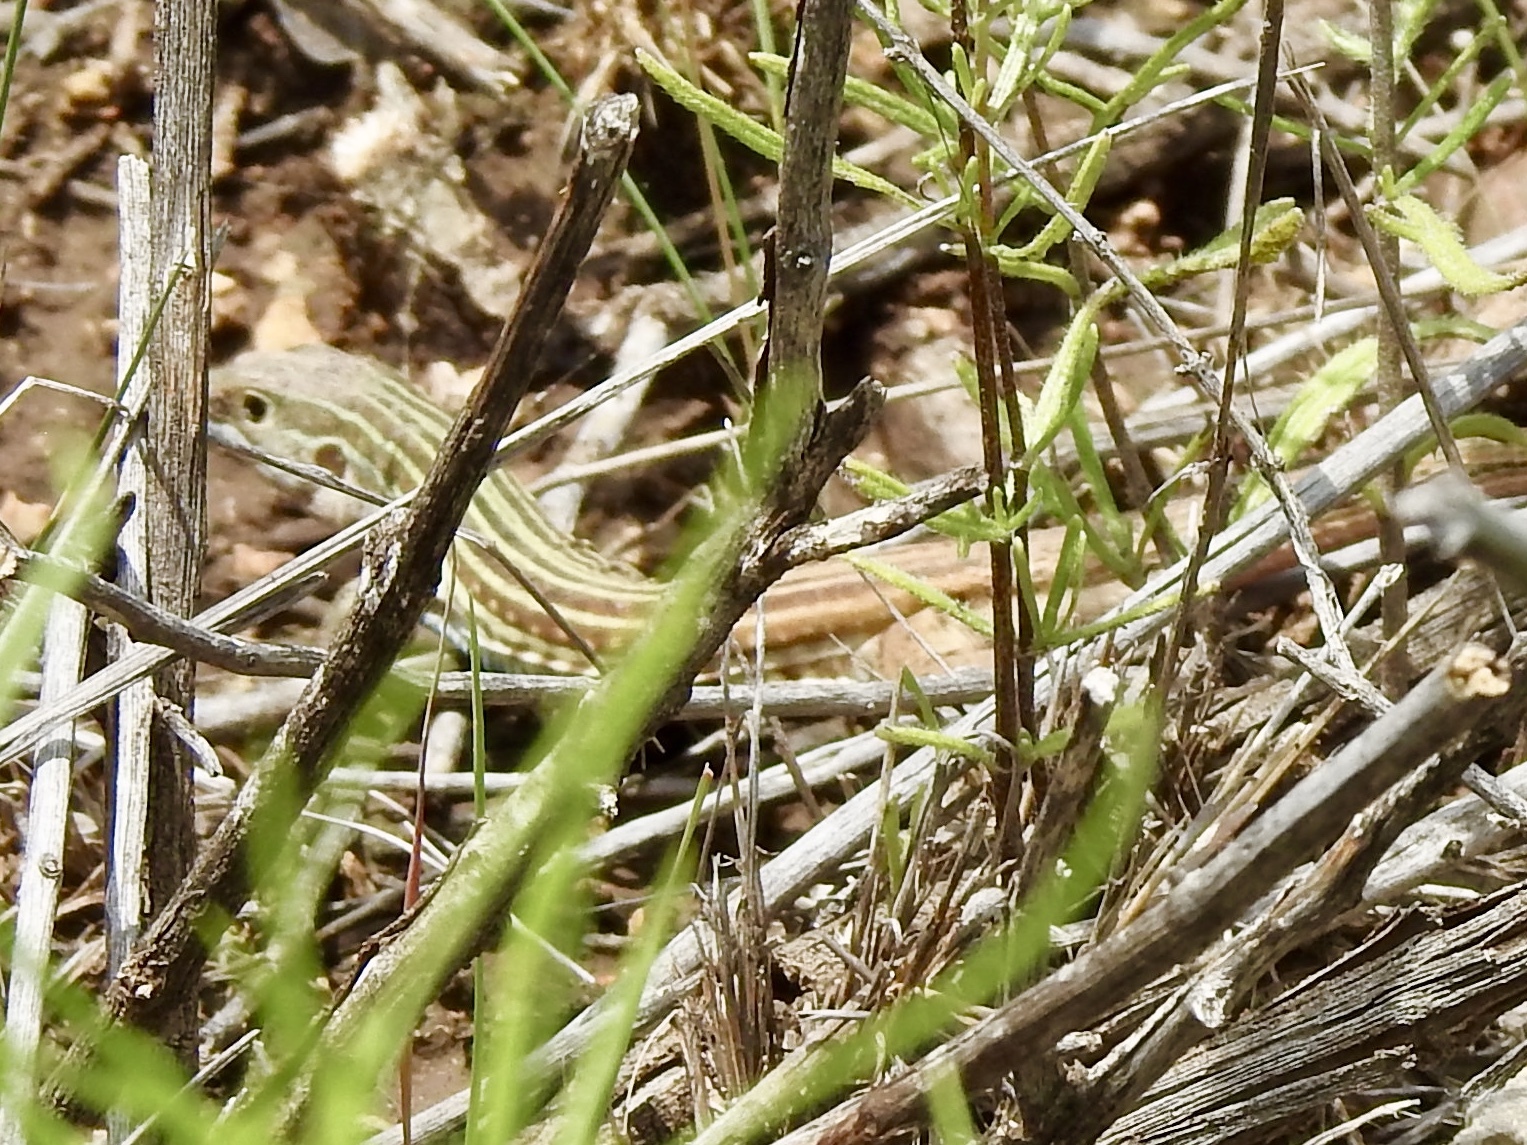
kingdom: Animalia
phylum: Chordata
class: Squamata
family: Teiidae
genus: Aspidoscelis
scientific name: Aspidoscelis gularis
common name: Eastern spotted whiptail
